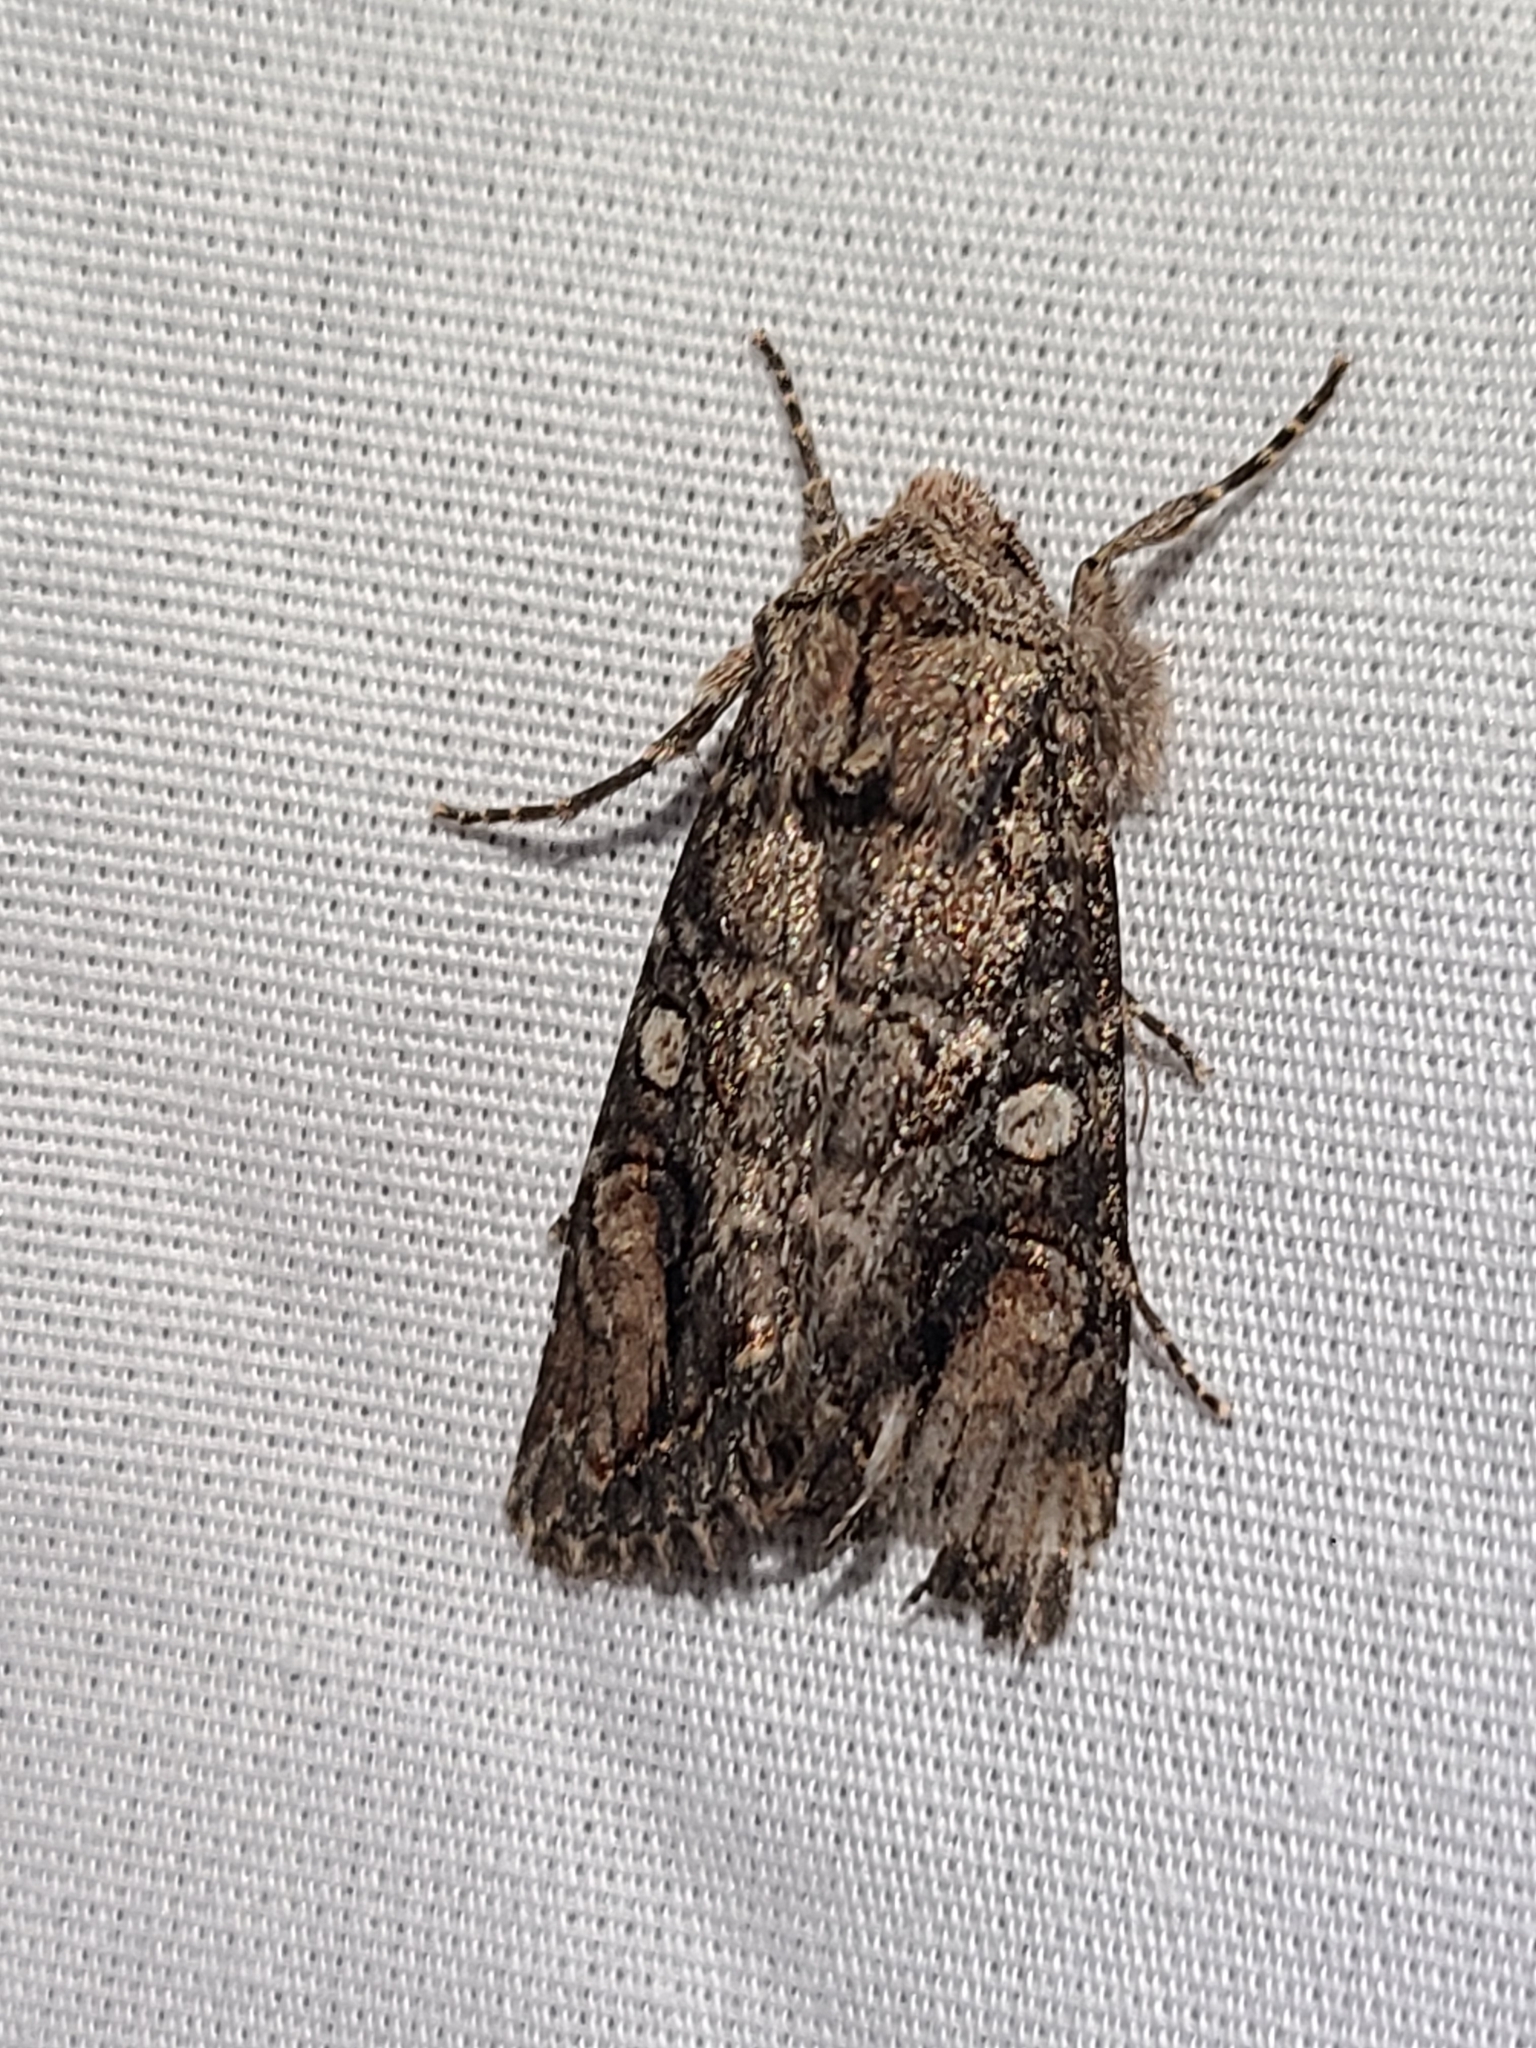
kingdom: Animalia
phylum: Arthropoda
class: Insecta
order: Lepidoptera
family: Noctuidae
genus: Egira
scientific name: Egira perlubens
